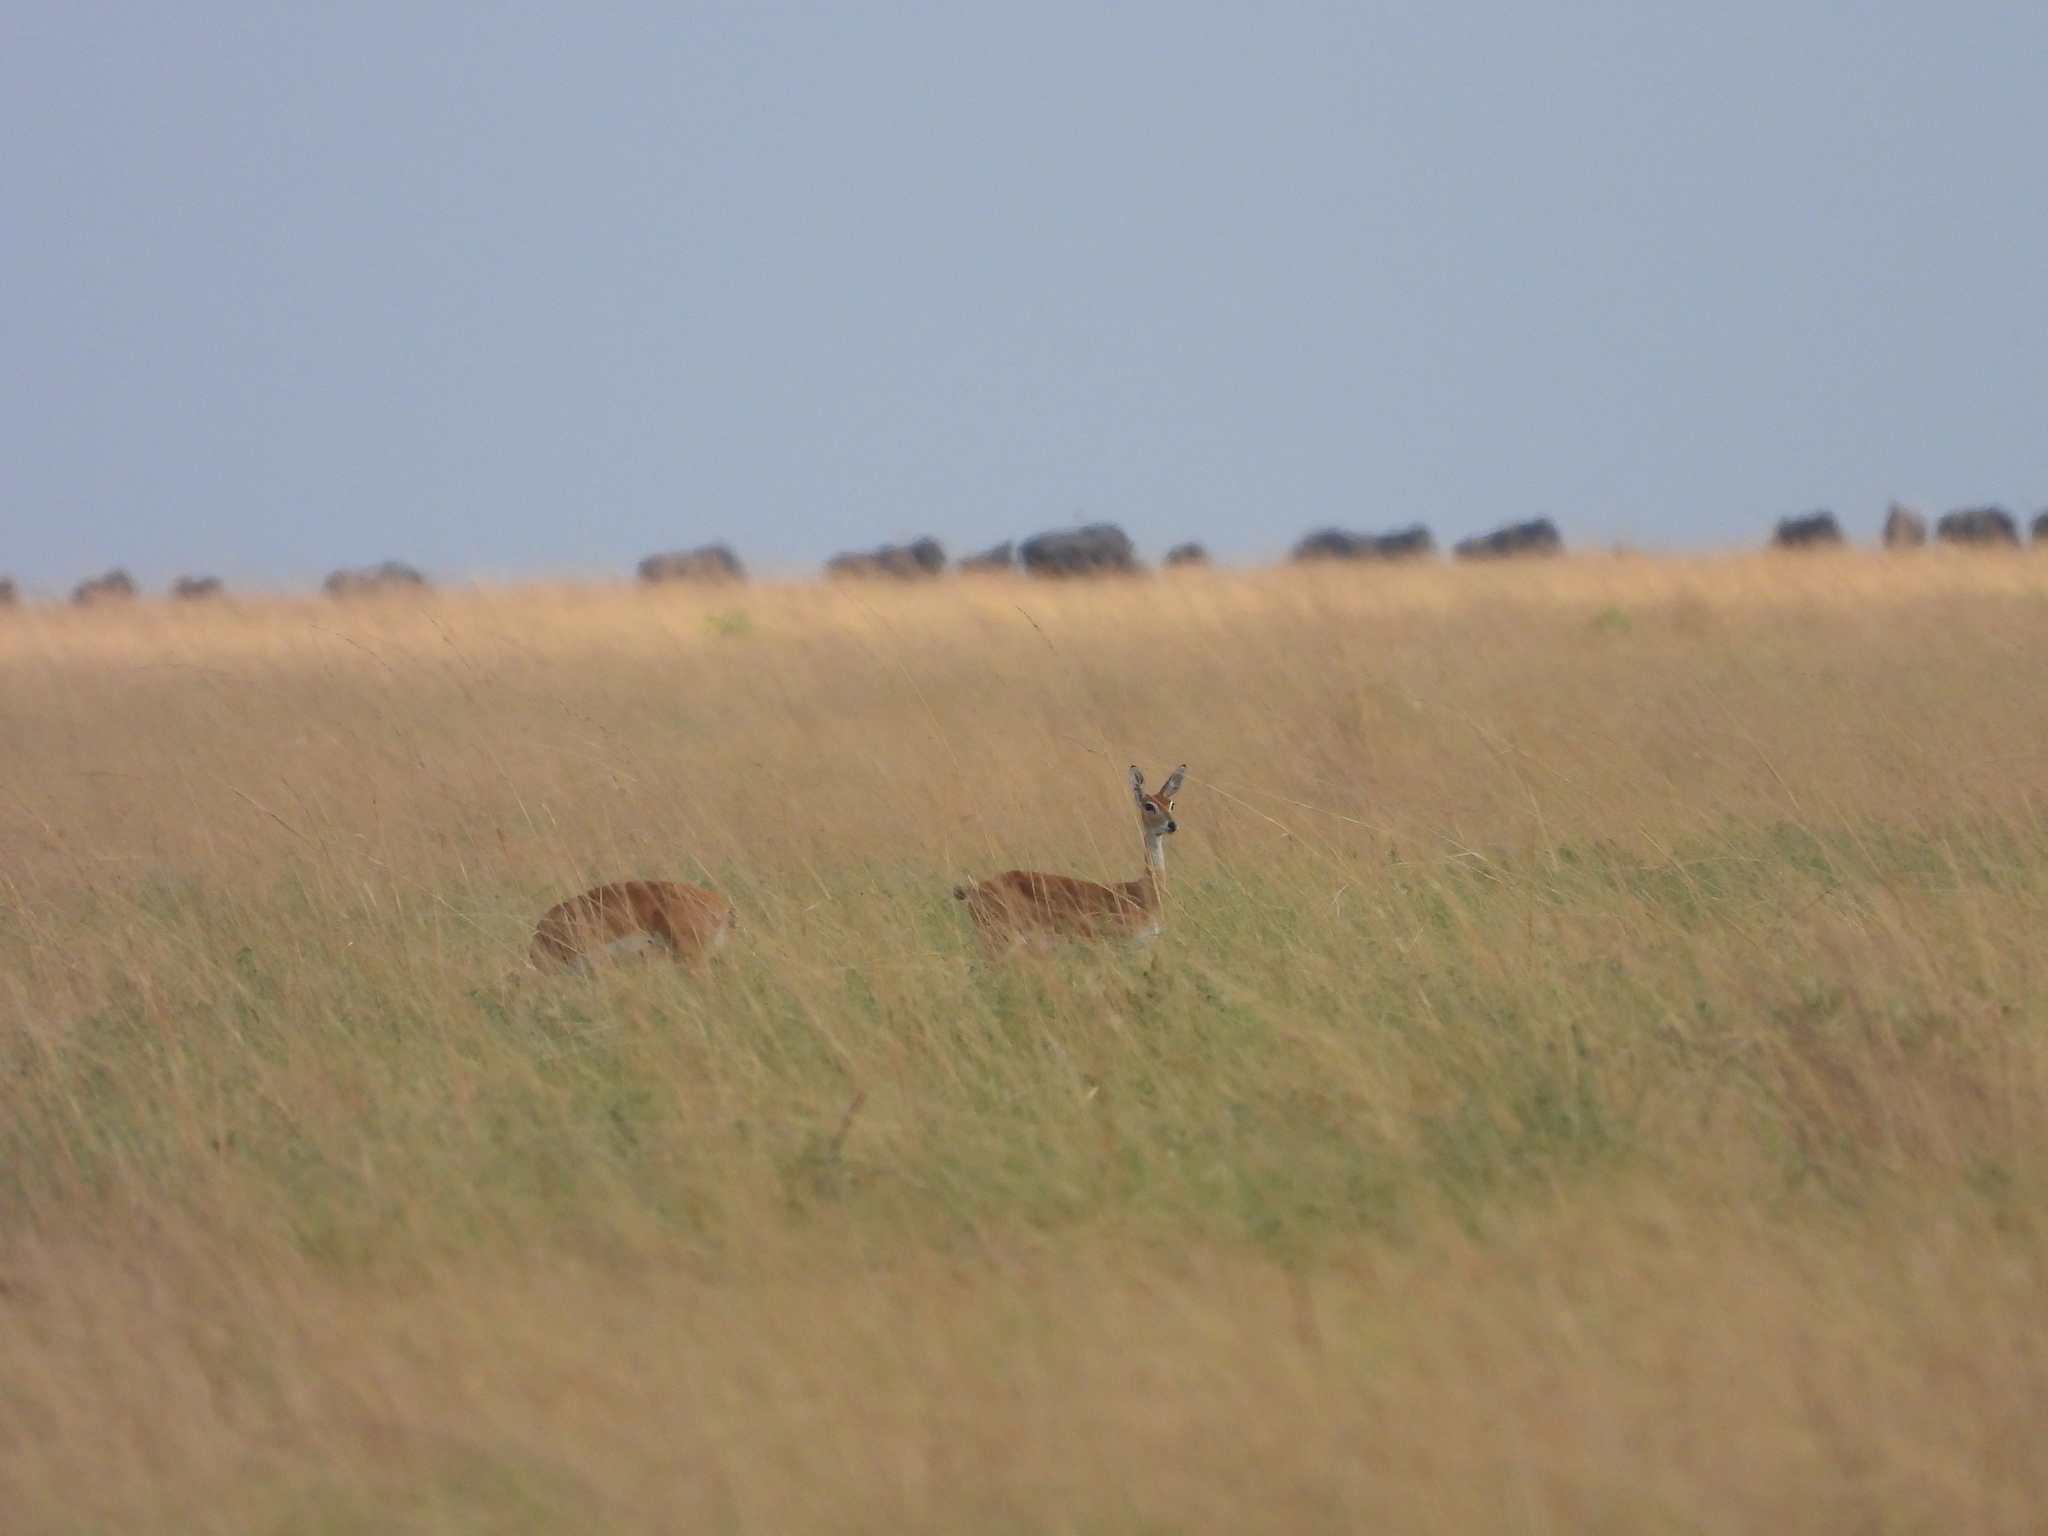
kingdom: Animalia
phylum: Chordata
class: Mammalia
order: Artiodactyla
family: Bovidae
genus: Ourebia
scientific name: Ourebia ourebi
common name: Oribi
